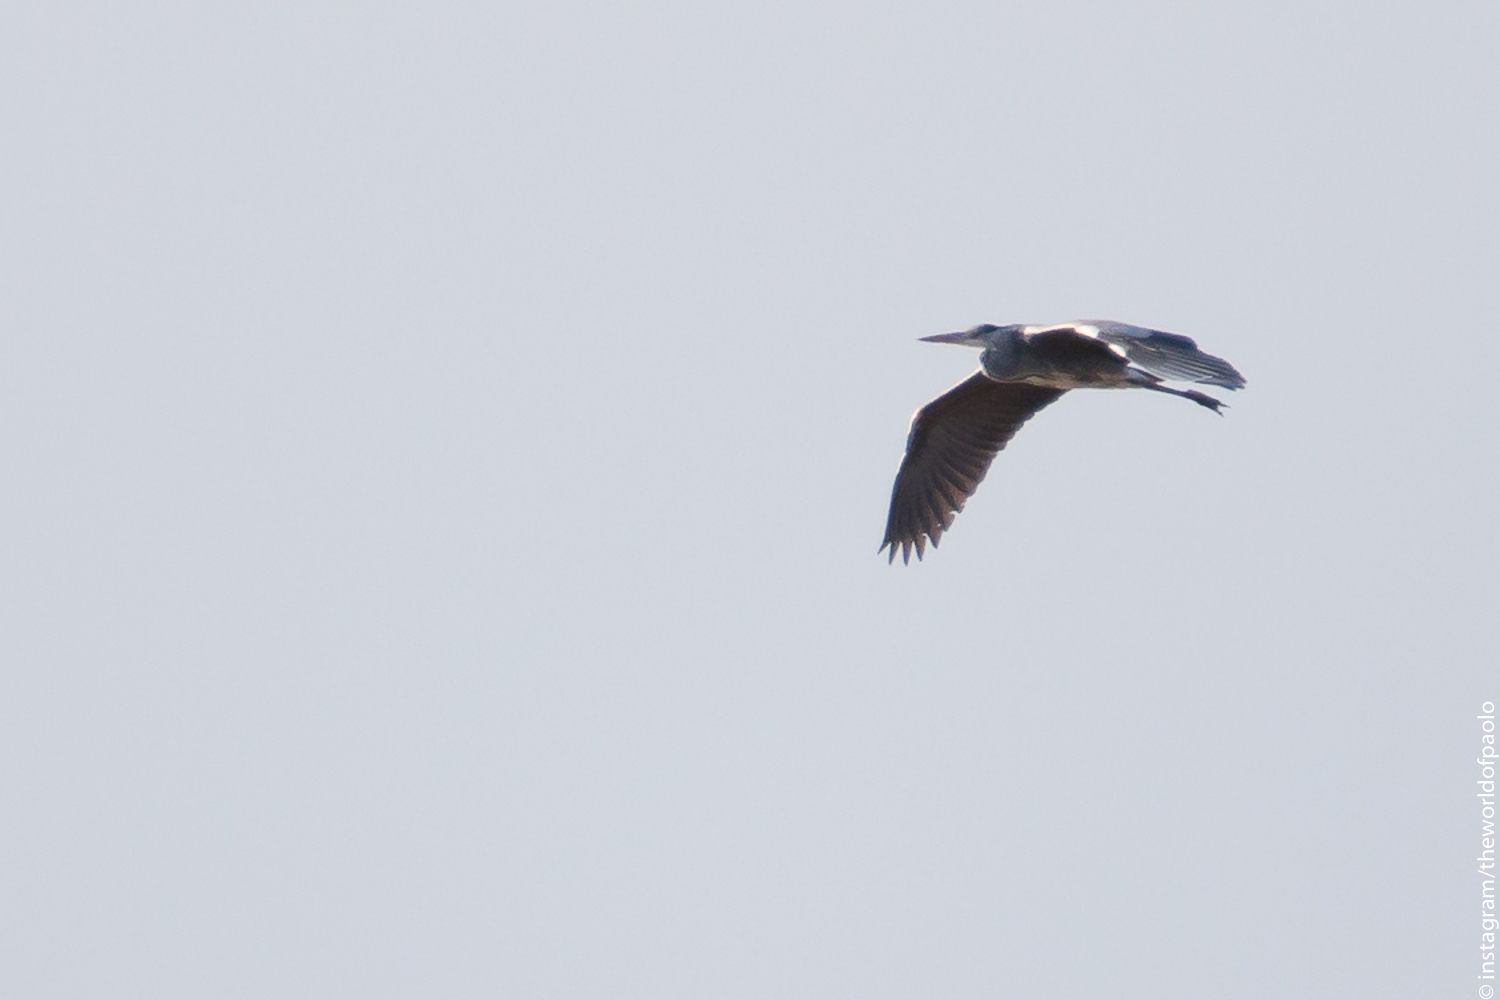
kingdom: Animalia
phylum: Chordata
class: Aves
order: Pelecaniformes
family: Ardeidae
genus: Ardea
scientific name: Ardea cinerea
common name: Grey heron
